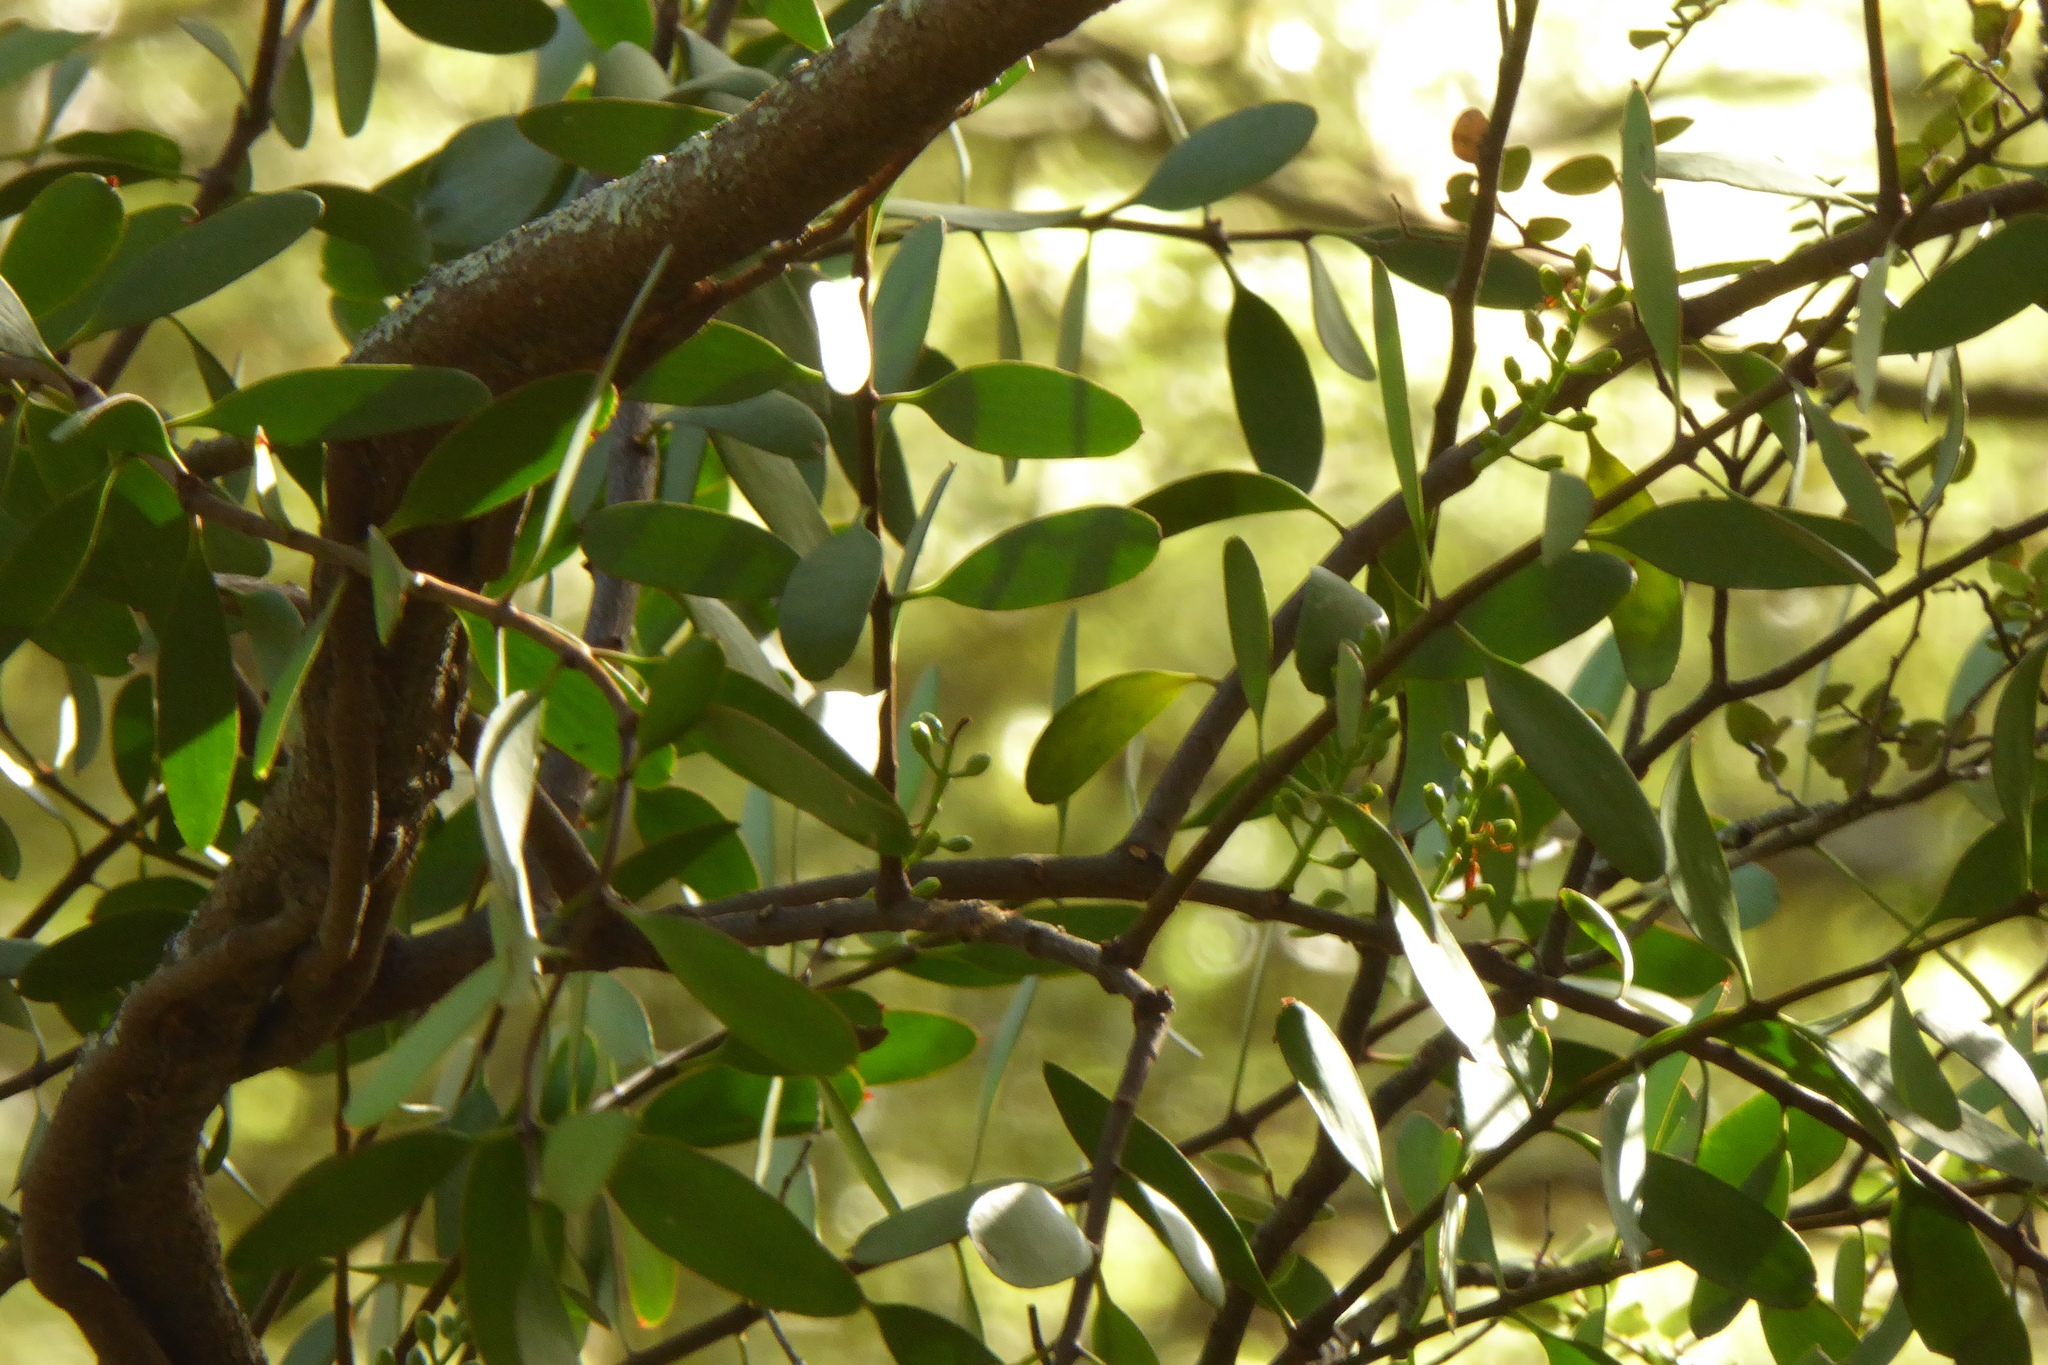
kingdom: Plantae
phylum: Tracheophyta
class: Magnoliopsida
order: Santalales
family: Loranthaceae
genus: Alepis
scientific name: Alepis flavida
